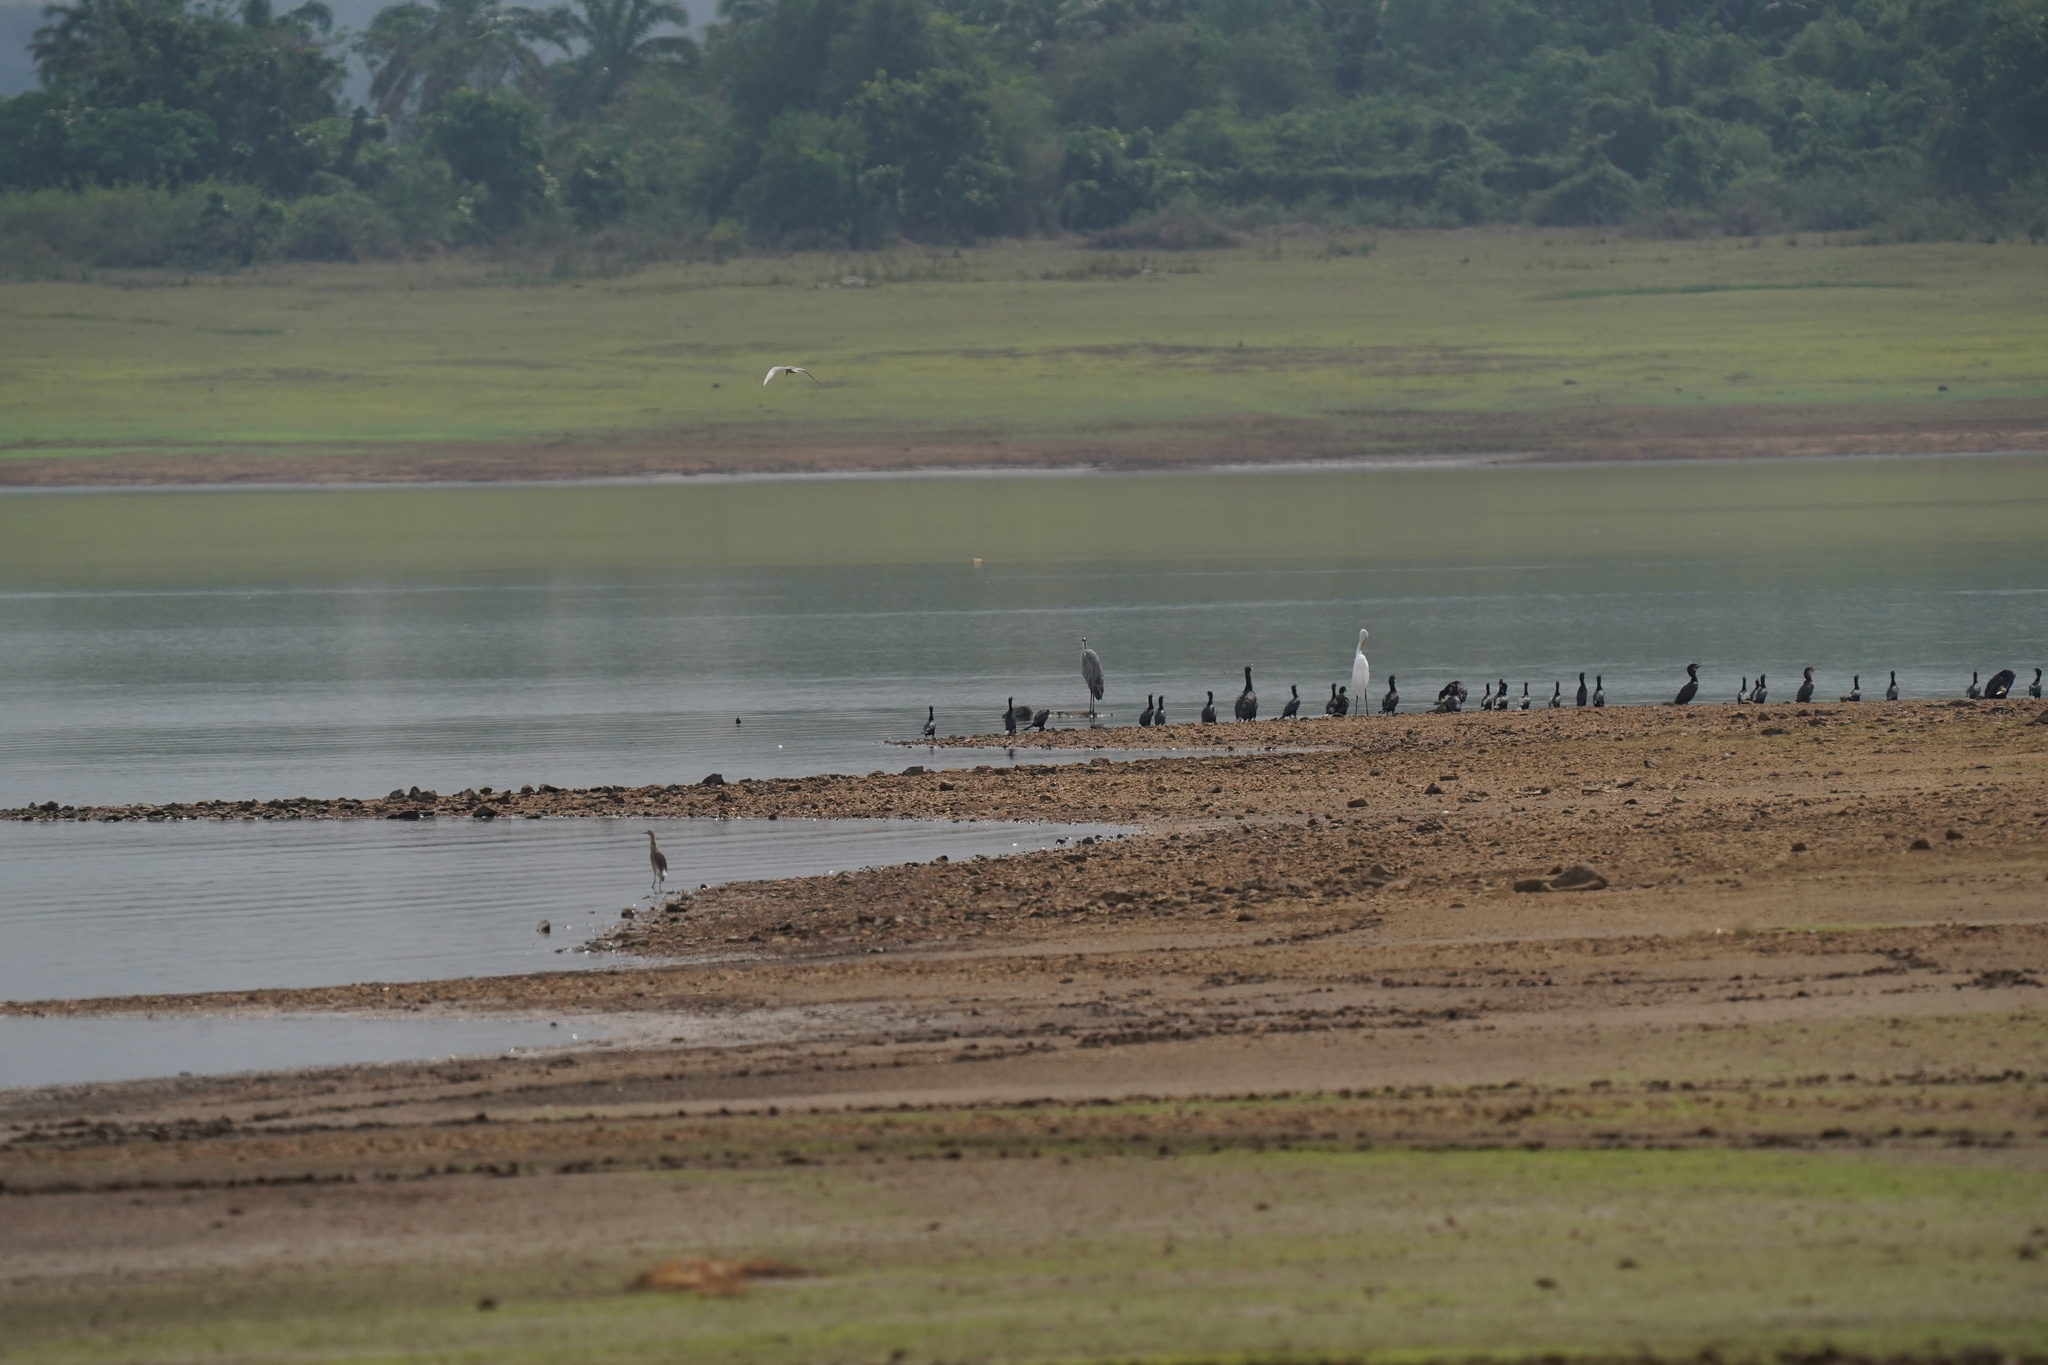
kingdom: Animalia
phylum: Chordata
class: Aves
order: Suliformes
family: Phalacrocoracidae
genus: Microcarbo
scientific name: Microcarbo niger
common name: Little cormorant
